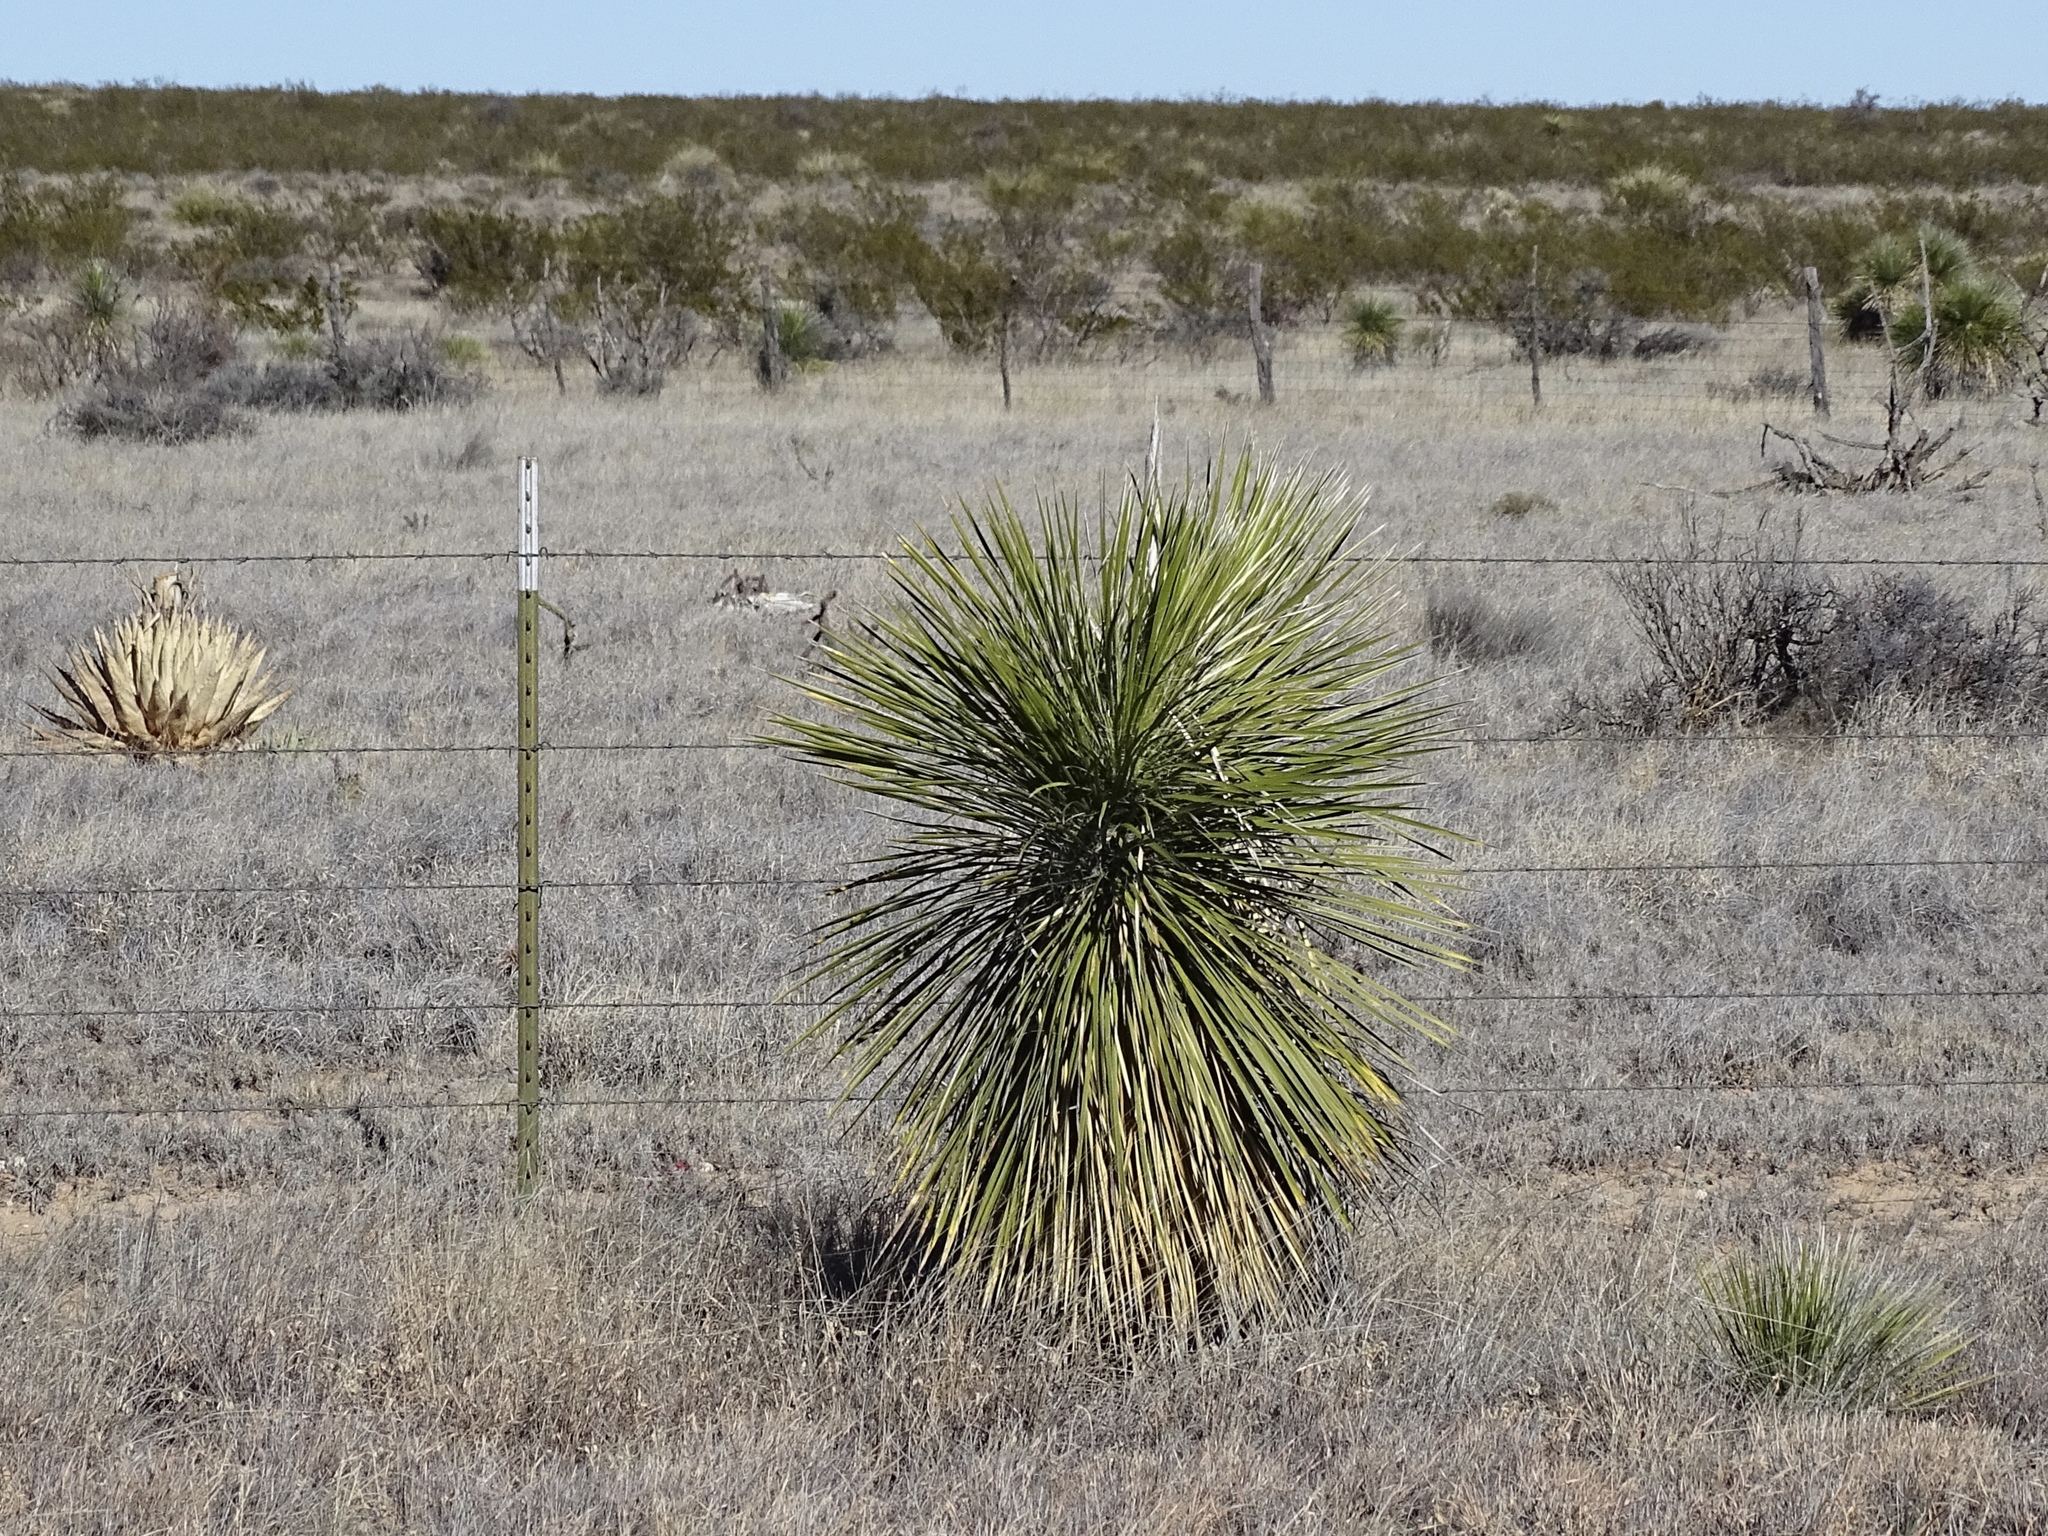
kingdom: Plantae
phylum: Tracheophyta
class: Liliopsida
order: Asparagales
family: Asparagaceae
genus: Yucca
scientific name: Yucca elata
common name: Palmella
